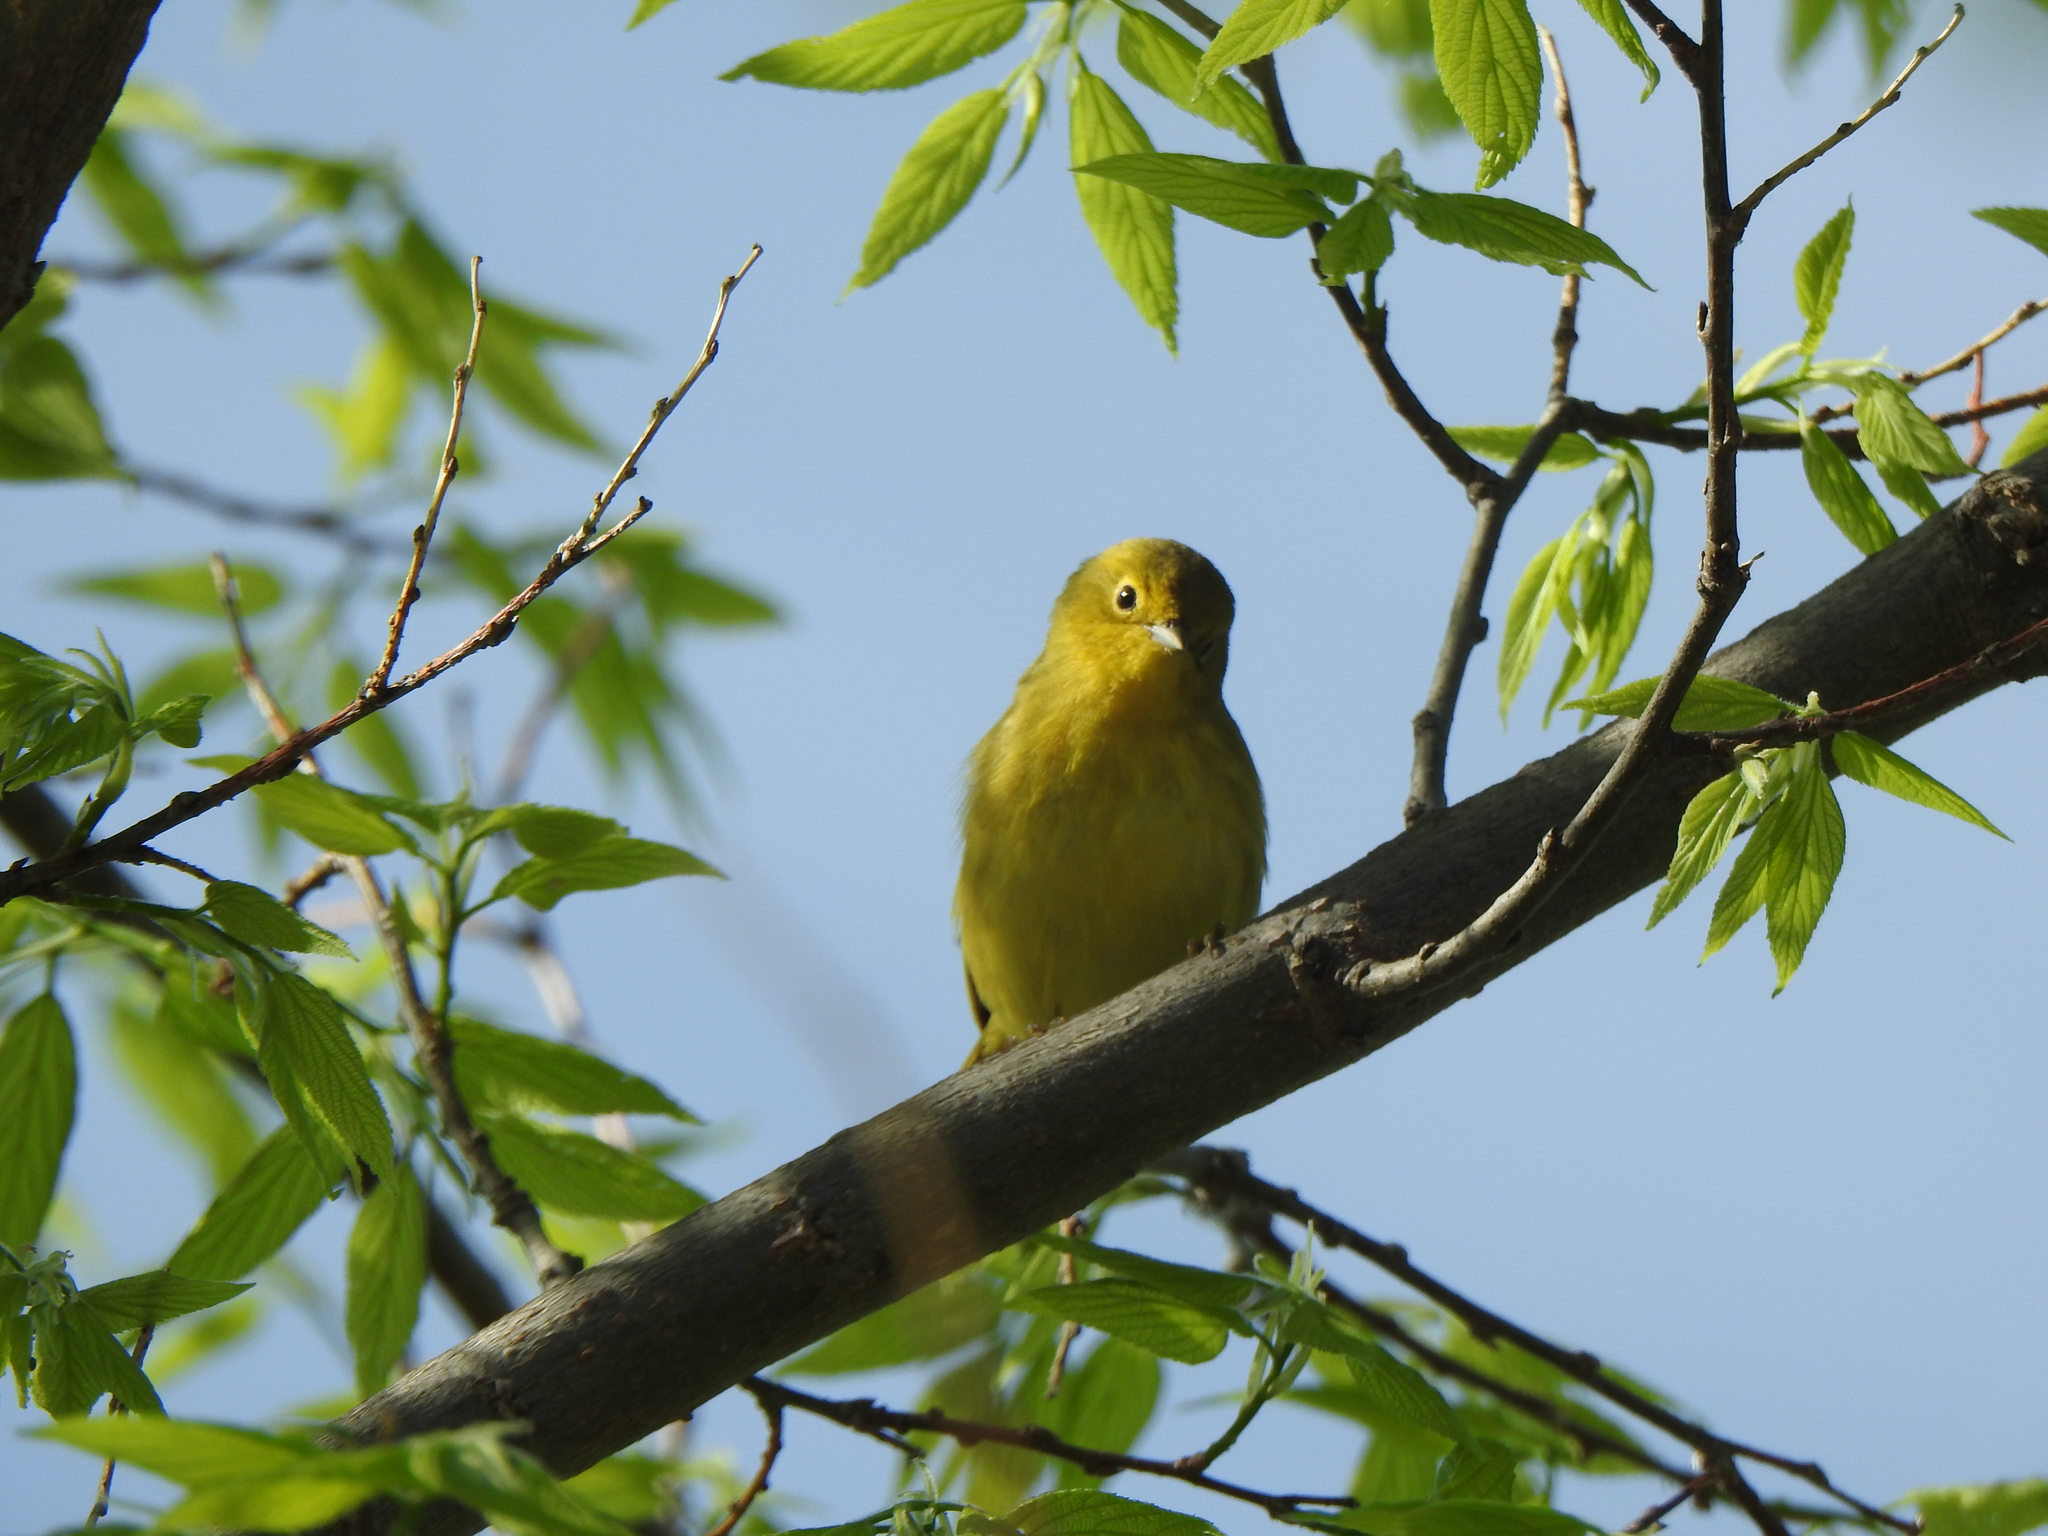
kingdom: Animalia
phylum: Chordata
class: Aves
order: Passeriformes
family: Parulidae
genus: Setophaga
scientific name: Setophaga petechia
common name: Yellow warbler
